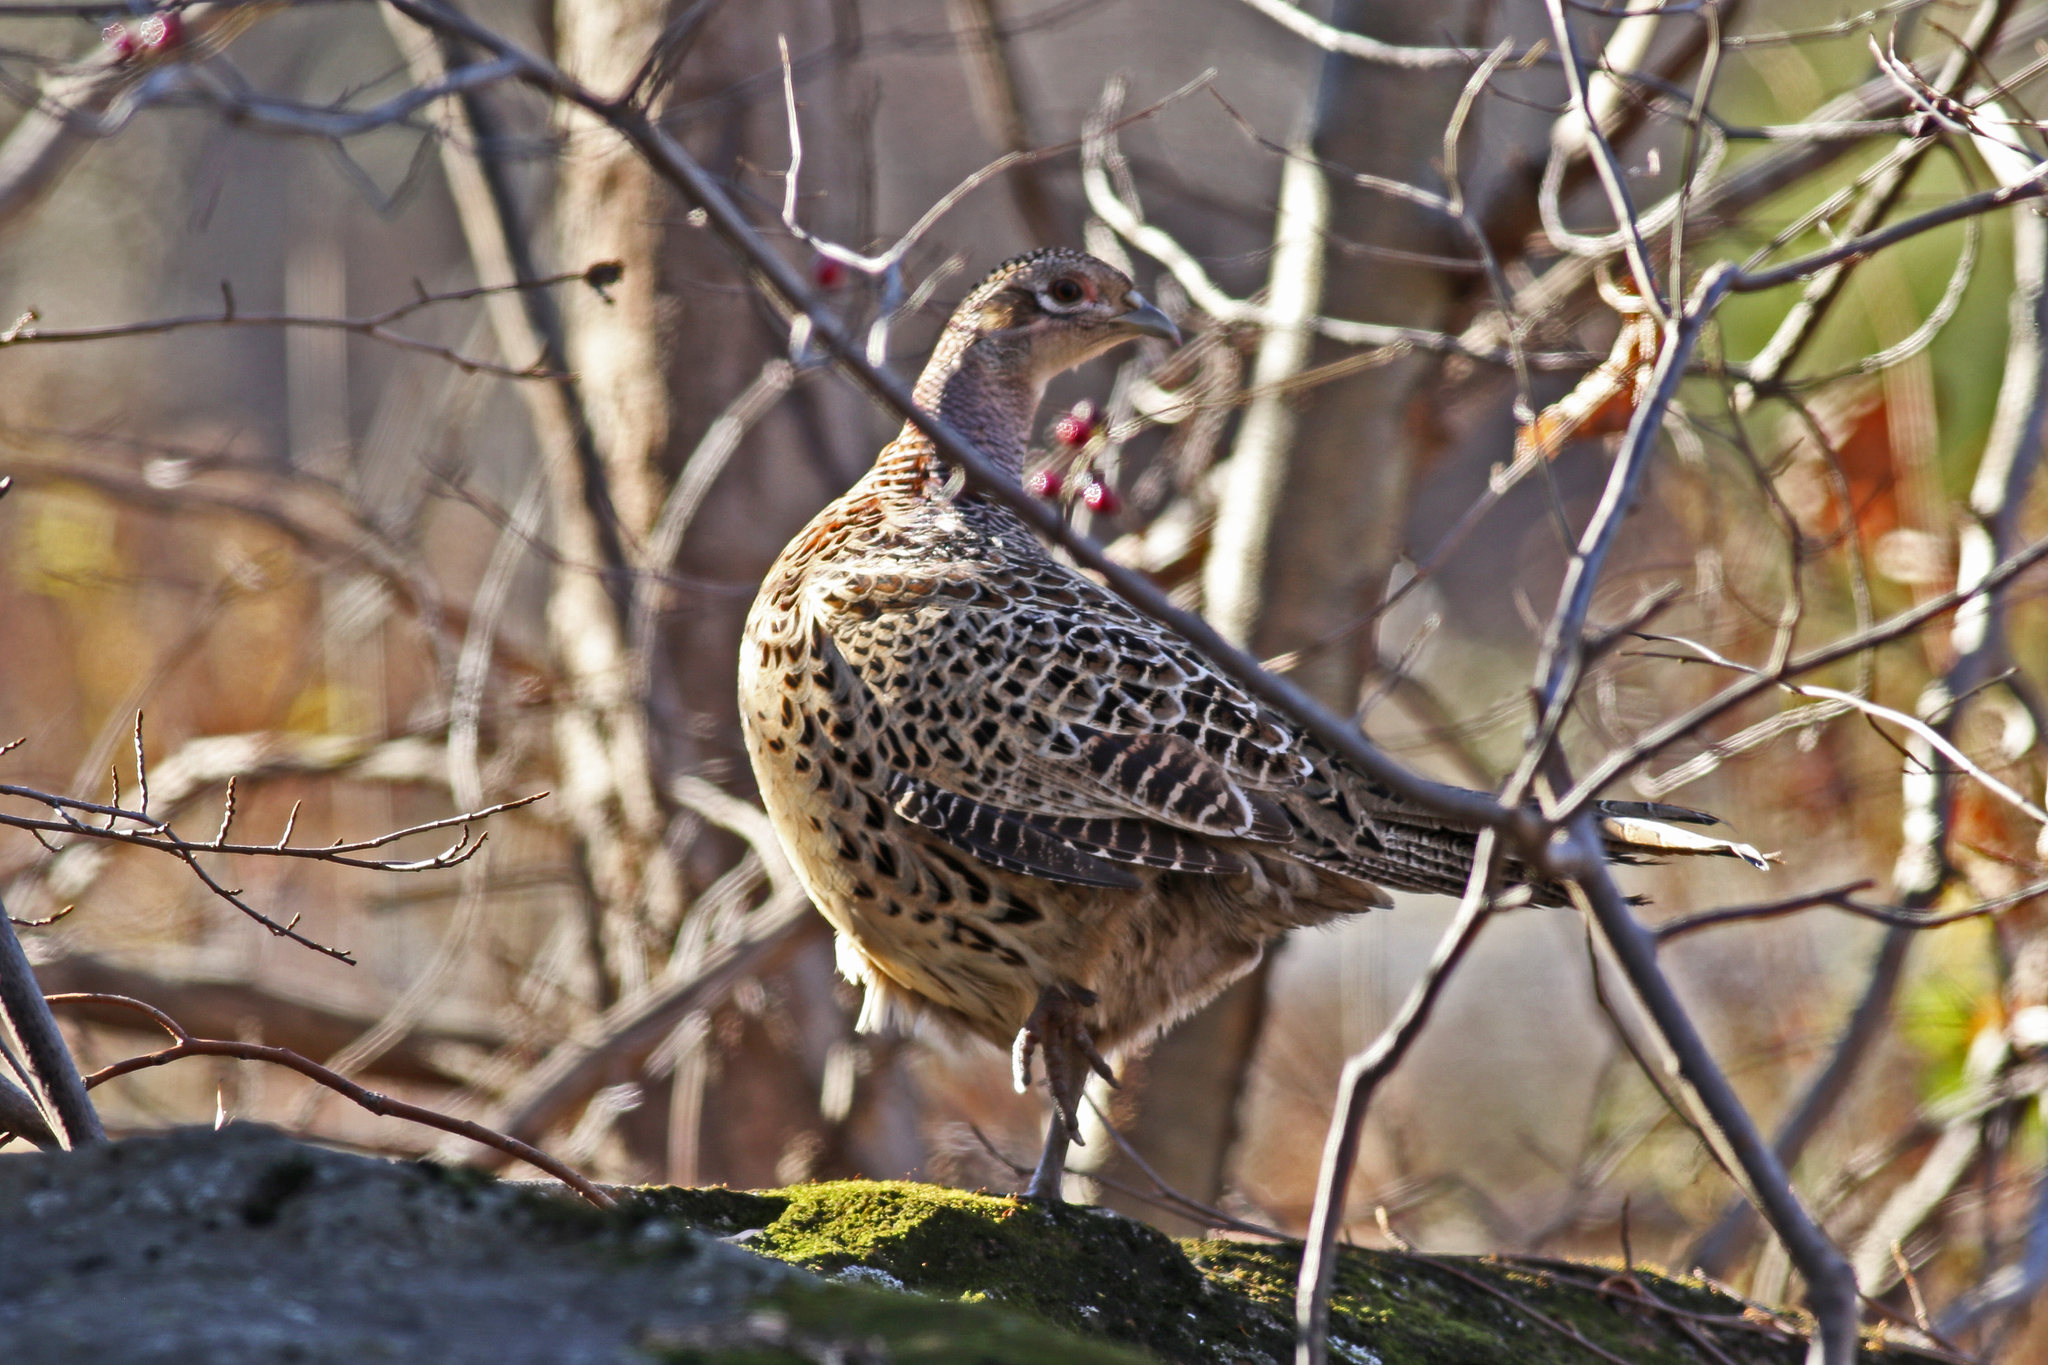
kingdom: Animalia
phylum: Chordata
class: Aves
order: Galliformes
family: Phasianidae
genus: Phasianus
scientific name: Phasianus colchicus
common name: Common pheasant
